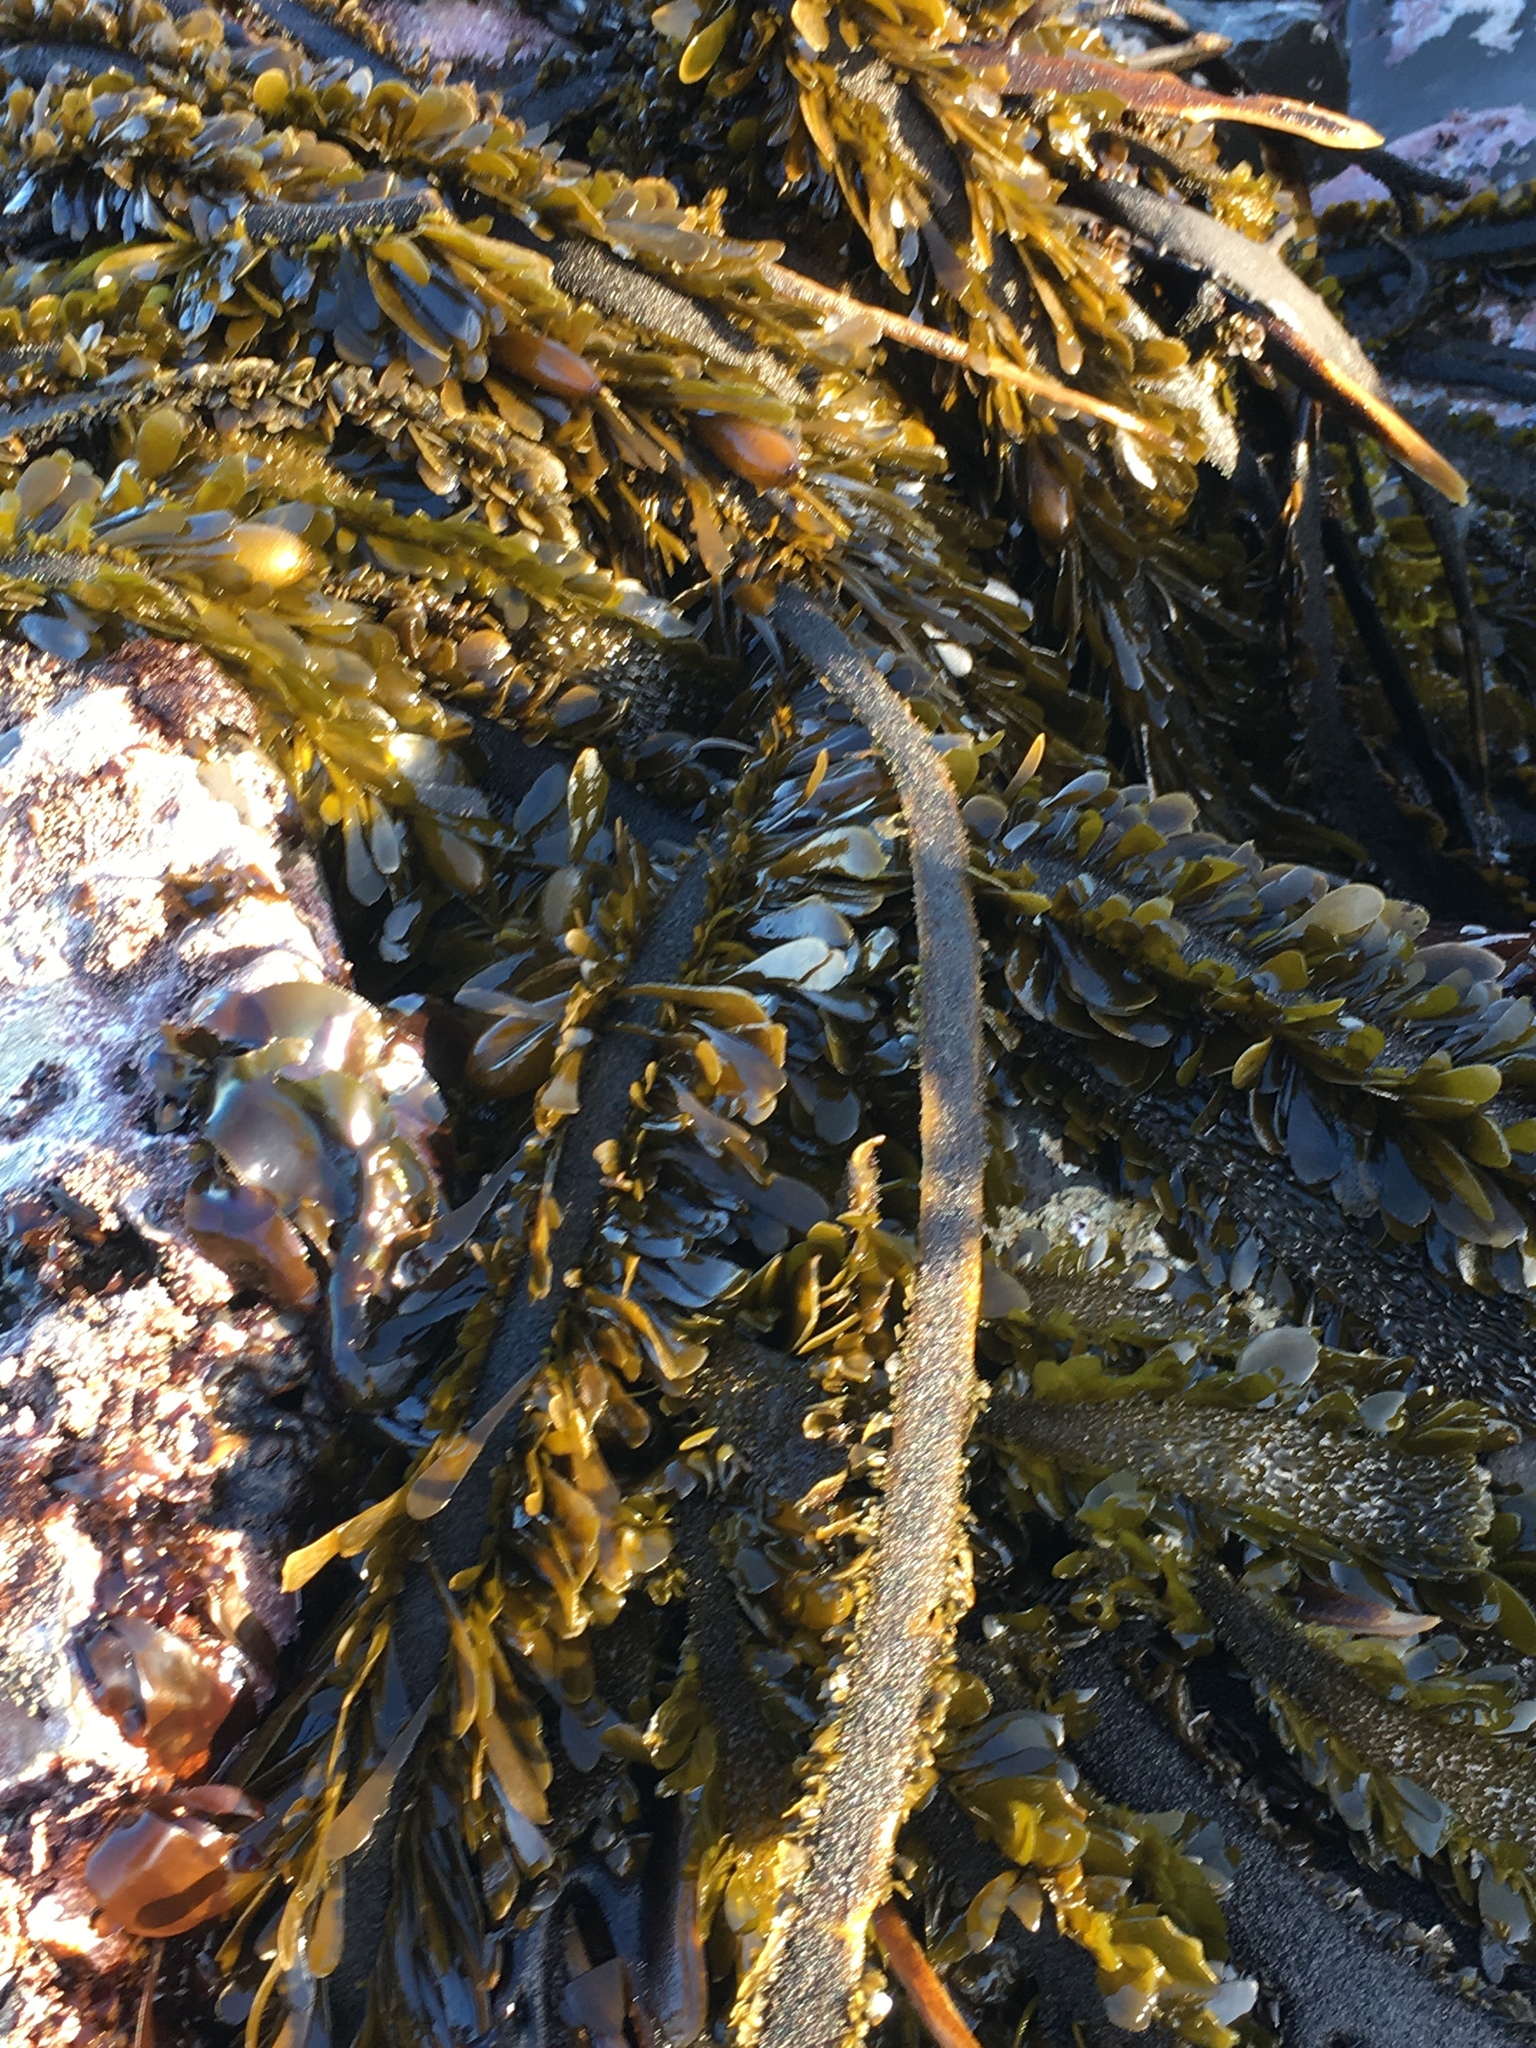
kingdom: Chromista
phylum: Ochrophyta
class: Phaeophyceae
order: Laminariales
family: Lessoniaceae
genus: Egregia
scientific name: Egregia menziesii
